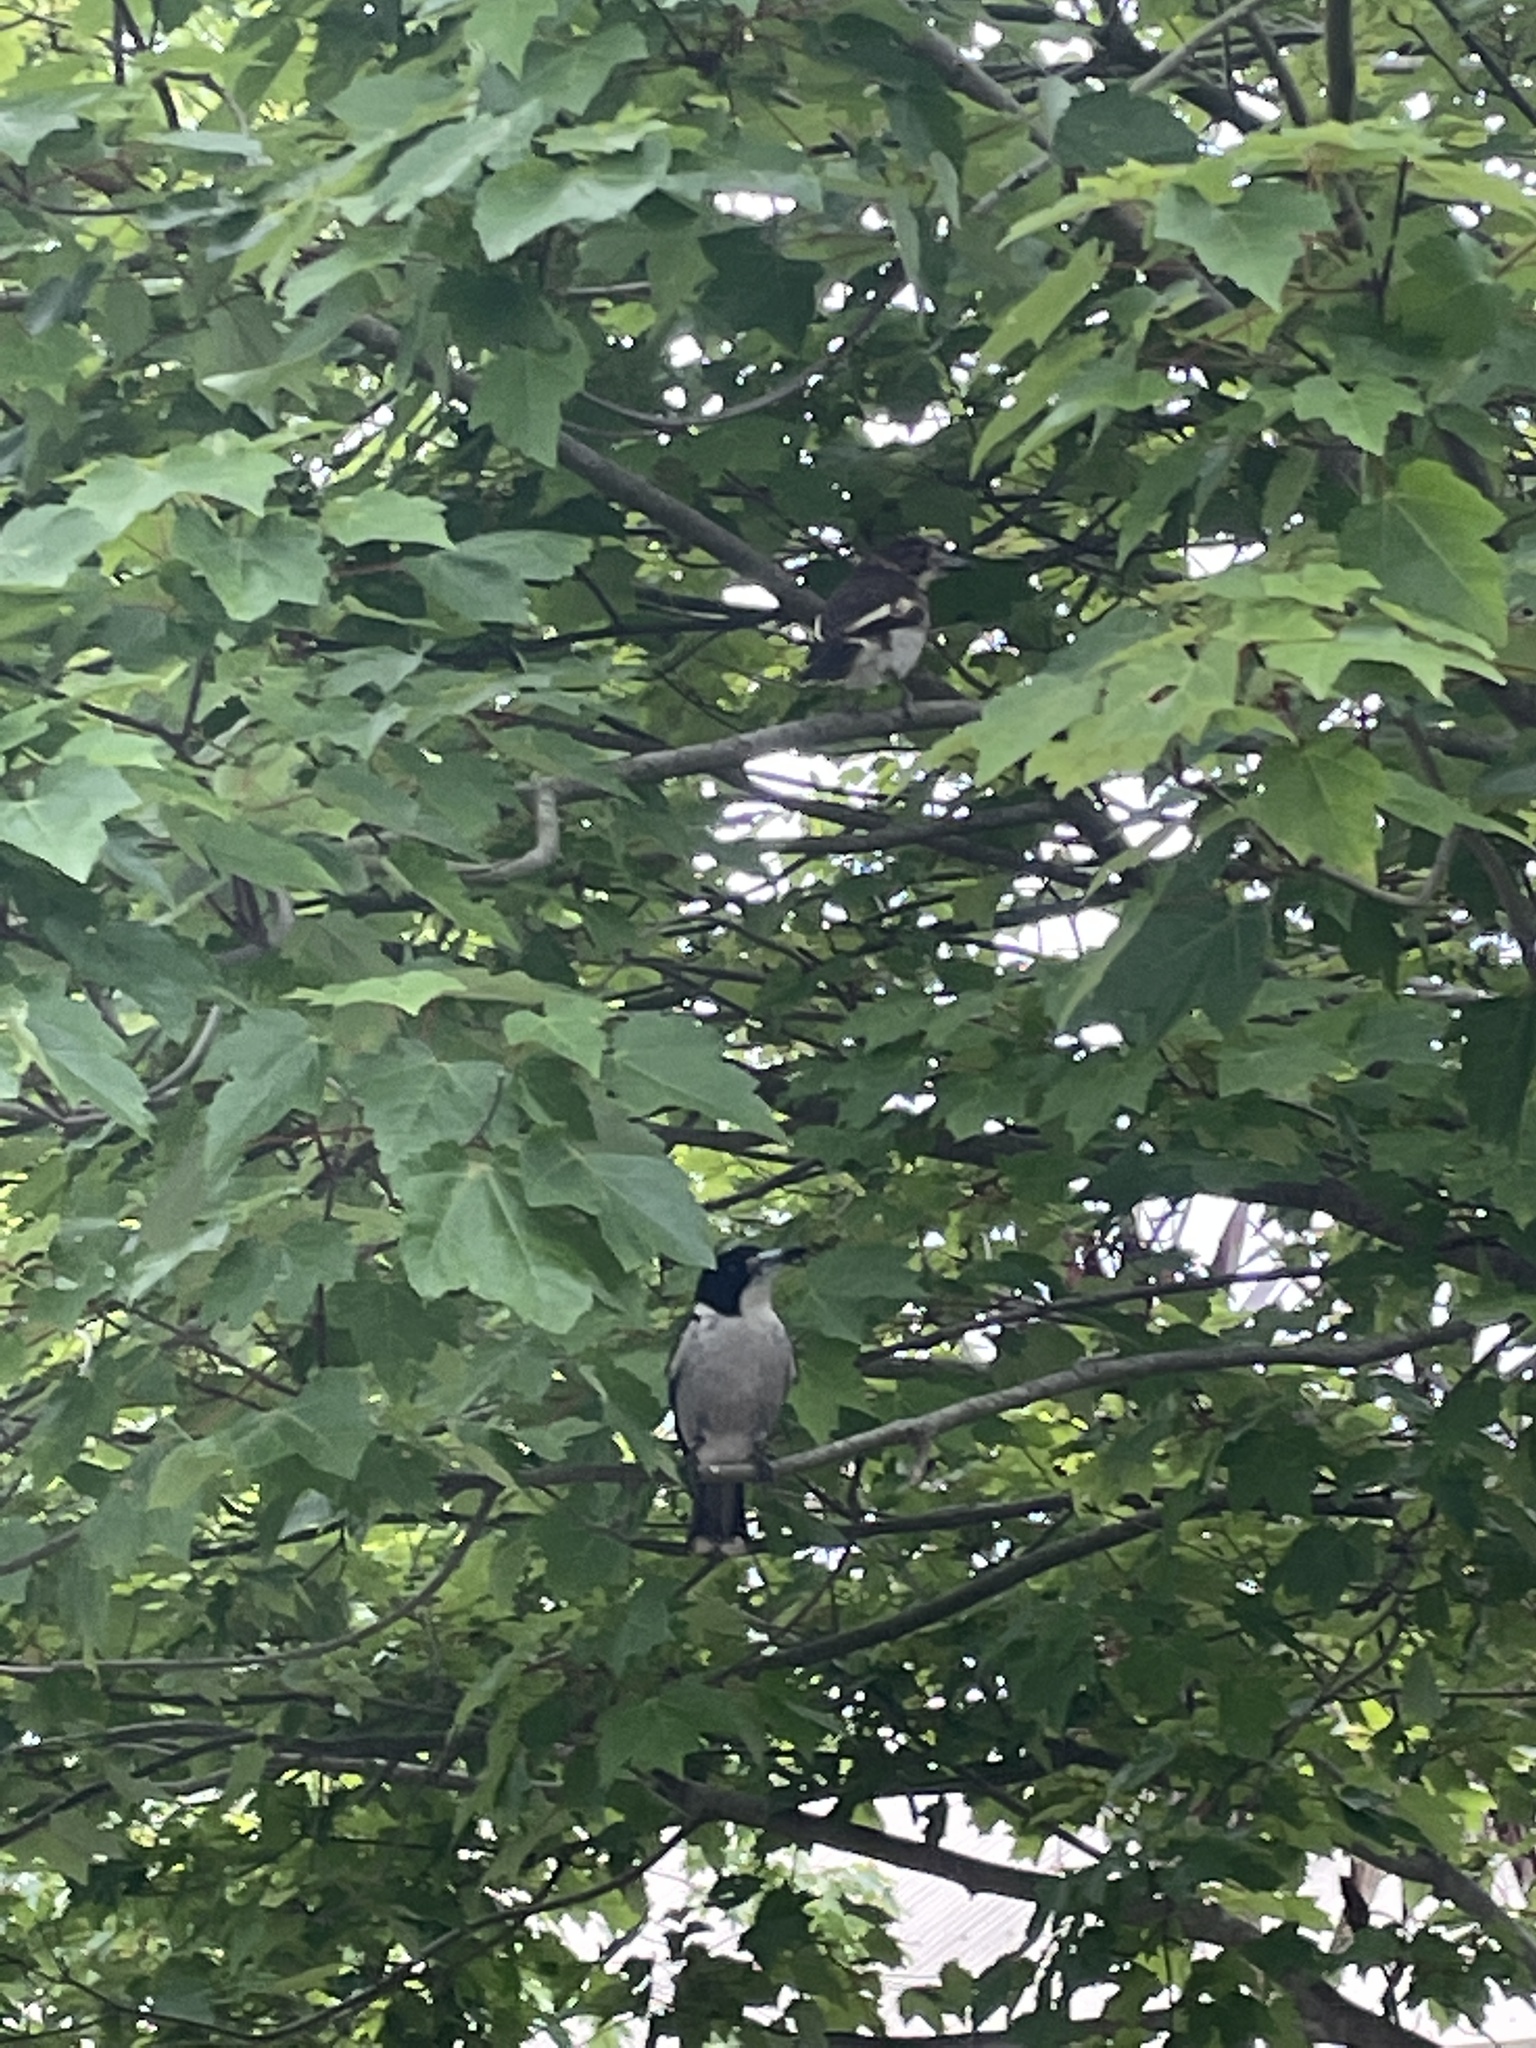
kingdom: Animalia
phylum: Chordata
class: Aves
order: Passeriformes
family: Cracticidae
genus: Cracticus
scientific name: Cracticus torquatus
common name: Grey butcherbird
